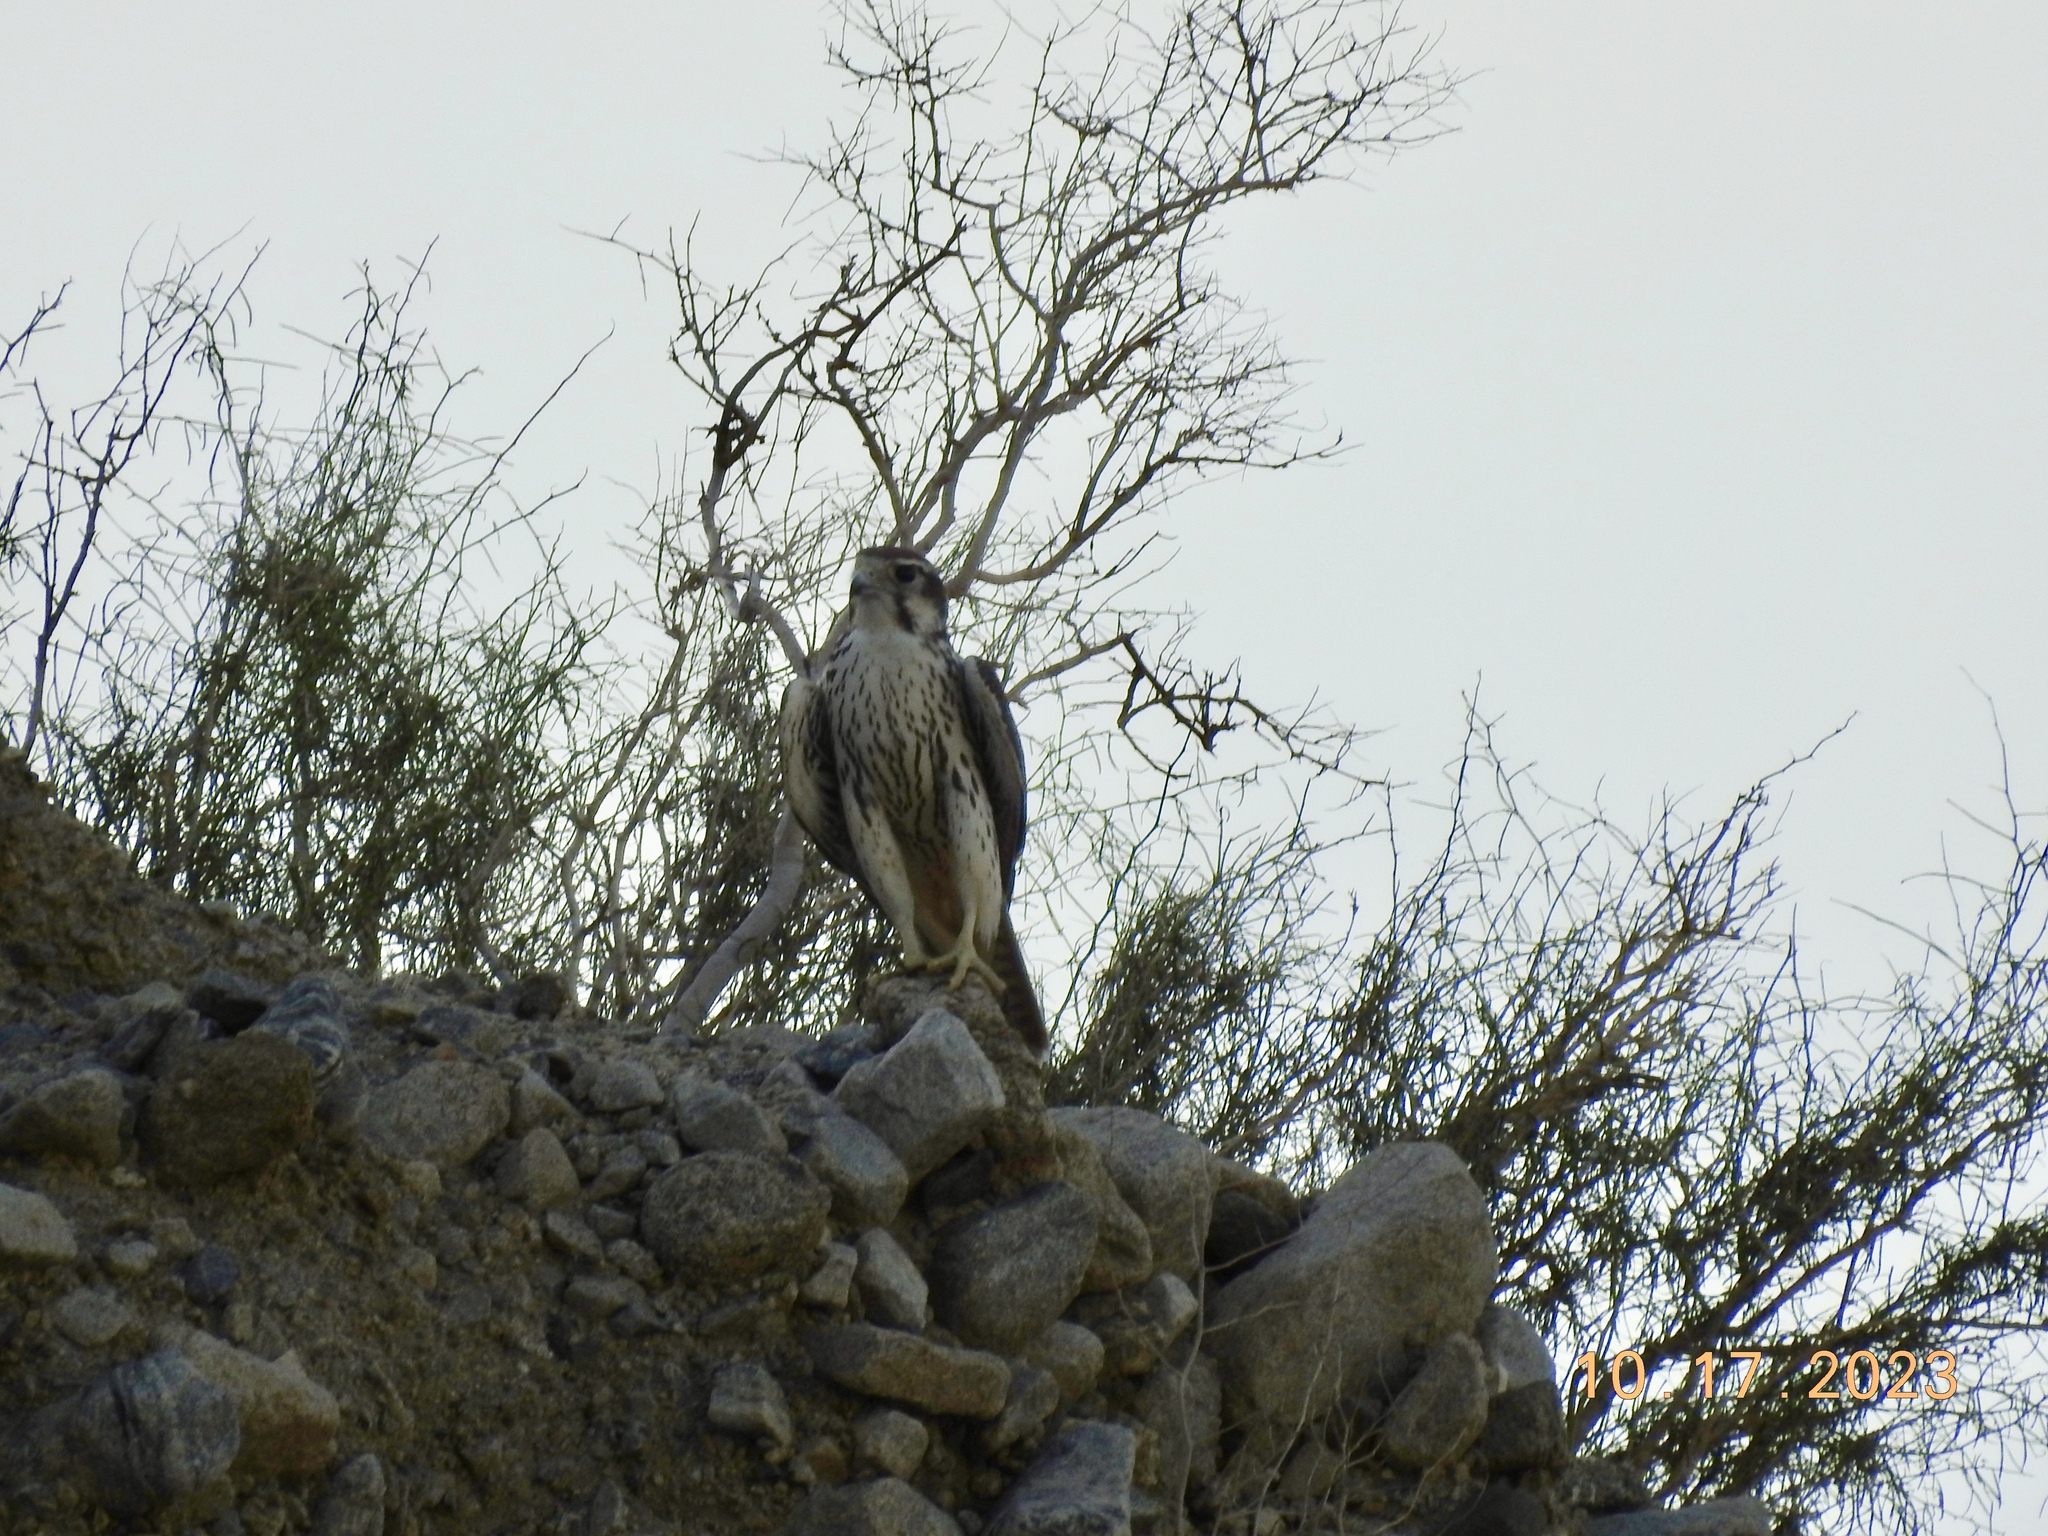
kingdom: Animalia
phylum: Chordata
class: Aves
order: Falconiformes
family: Falconidae
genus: Falco
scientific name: Falco mexicanus
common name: Prairie falcon
